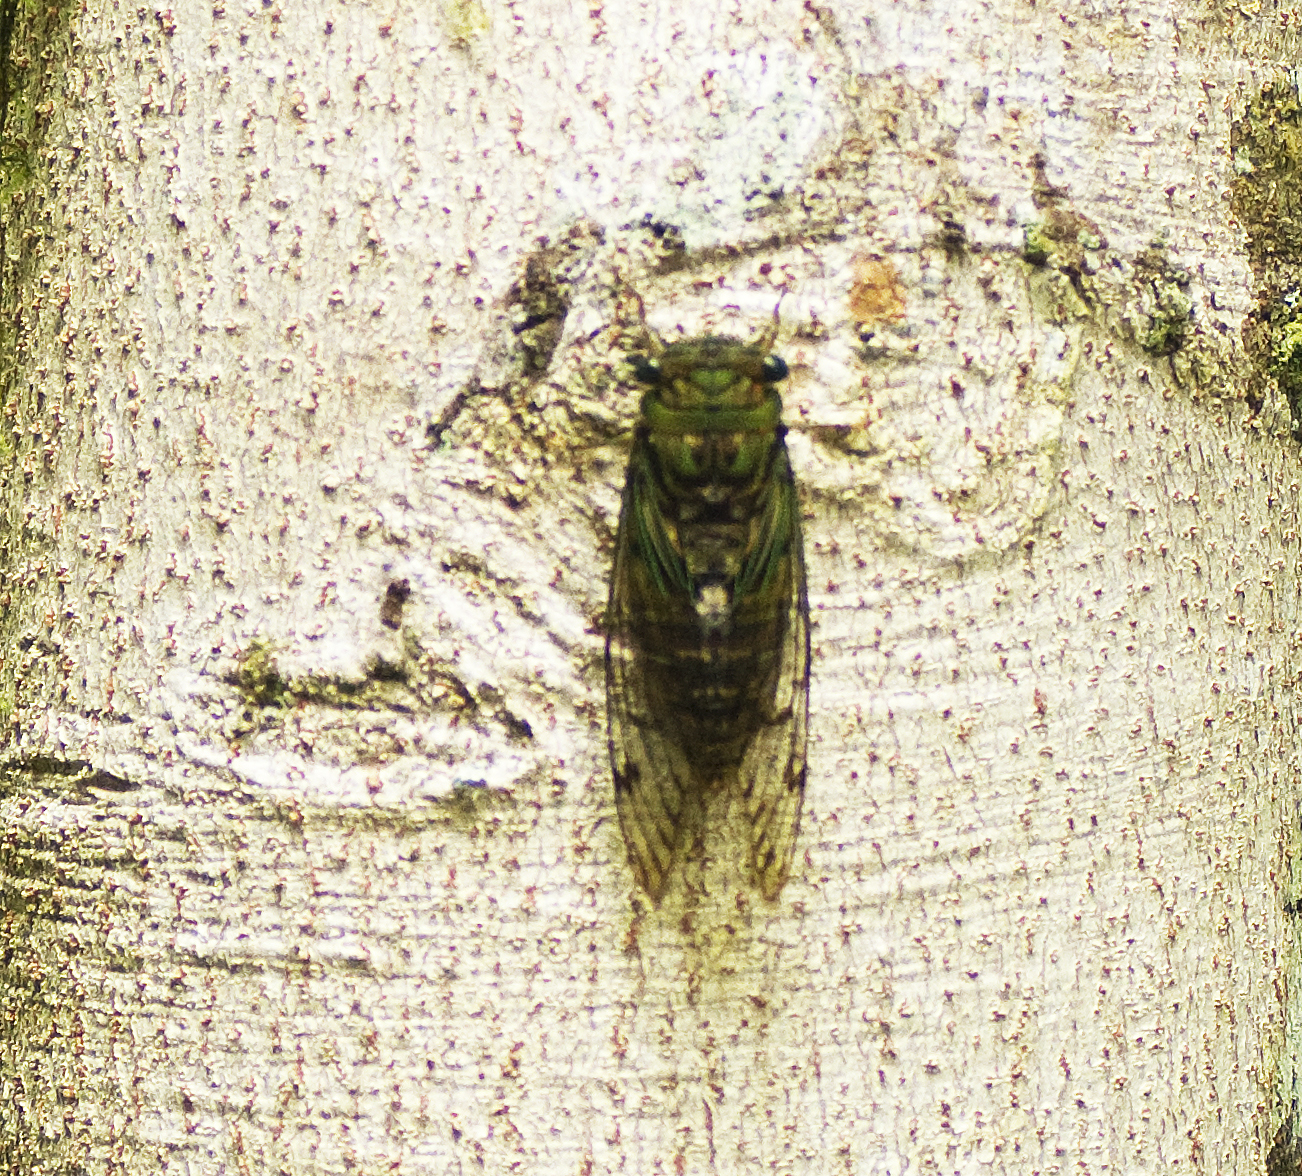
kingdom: Animalia
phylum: Arthropoda
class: Insecta
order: Hemiptera
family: Cicadidae
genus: Anapsaltoda
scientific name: Anapsaltoda pulchra
